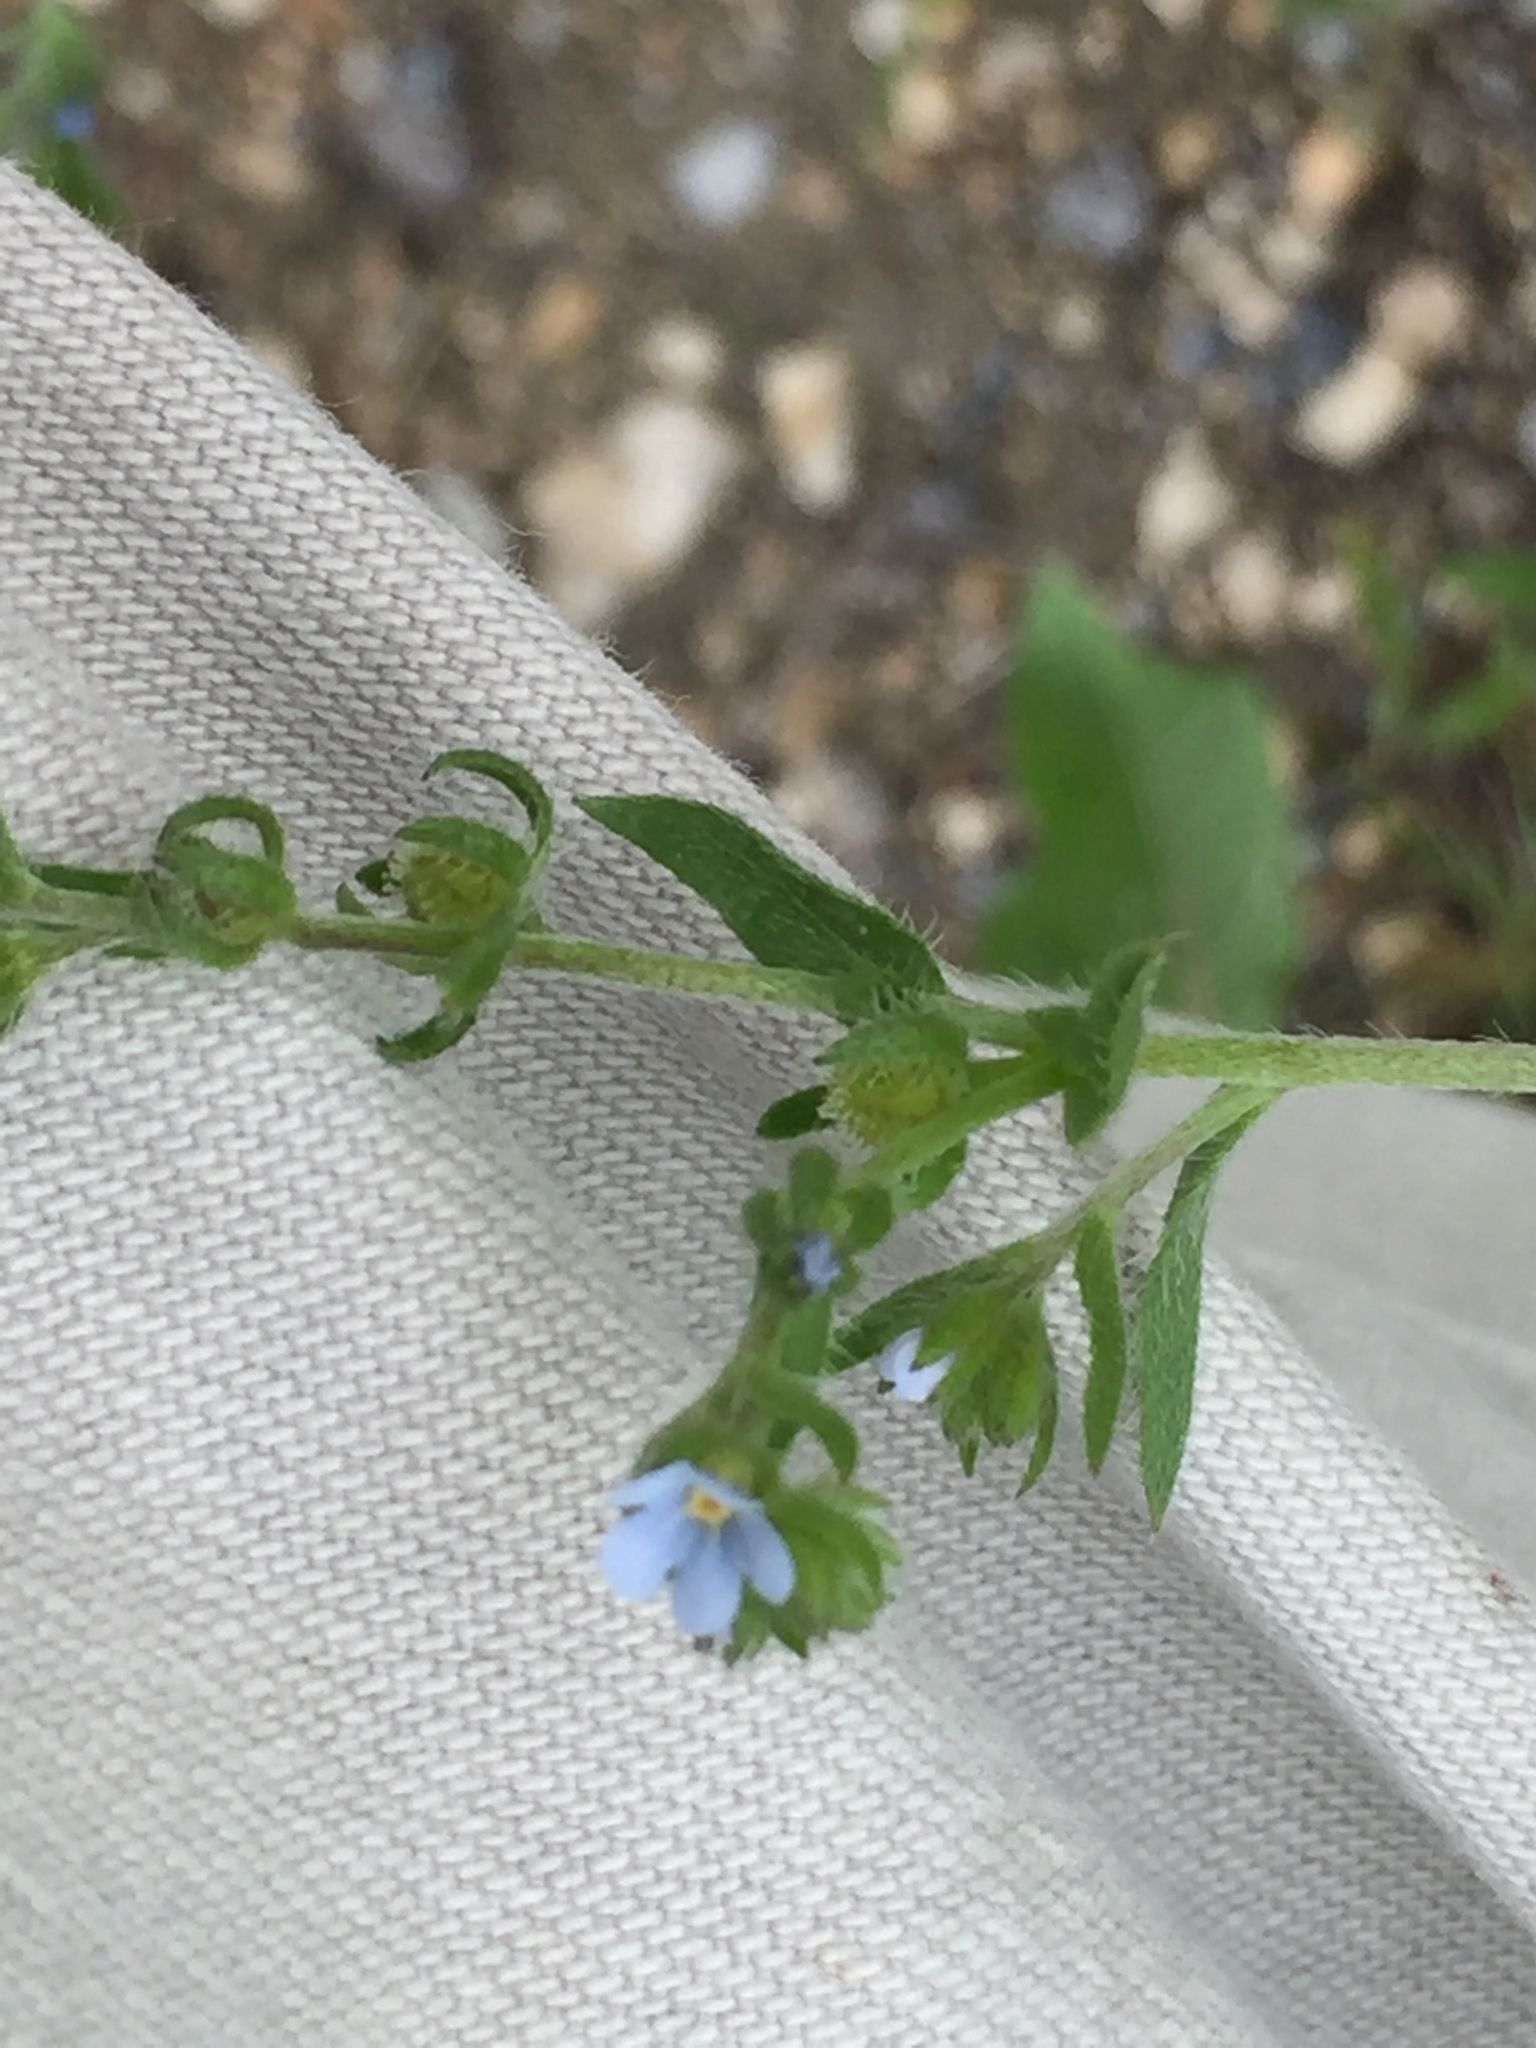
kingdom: Plantae
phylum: Tracheophyta
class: Magnoliopsida
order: Boraginales
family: Boraginaceae
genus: Lappula
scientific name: Lappula squarrosa
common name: European stickseed
